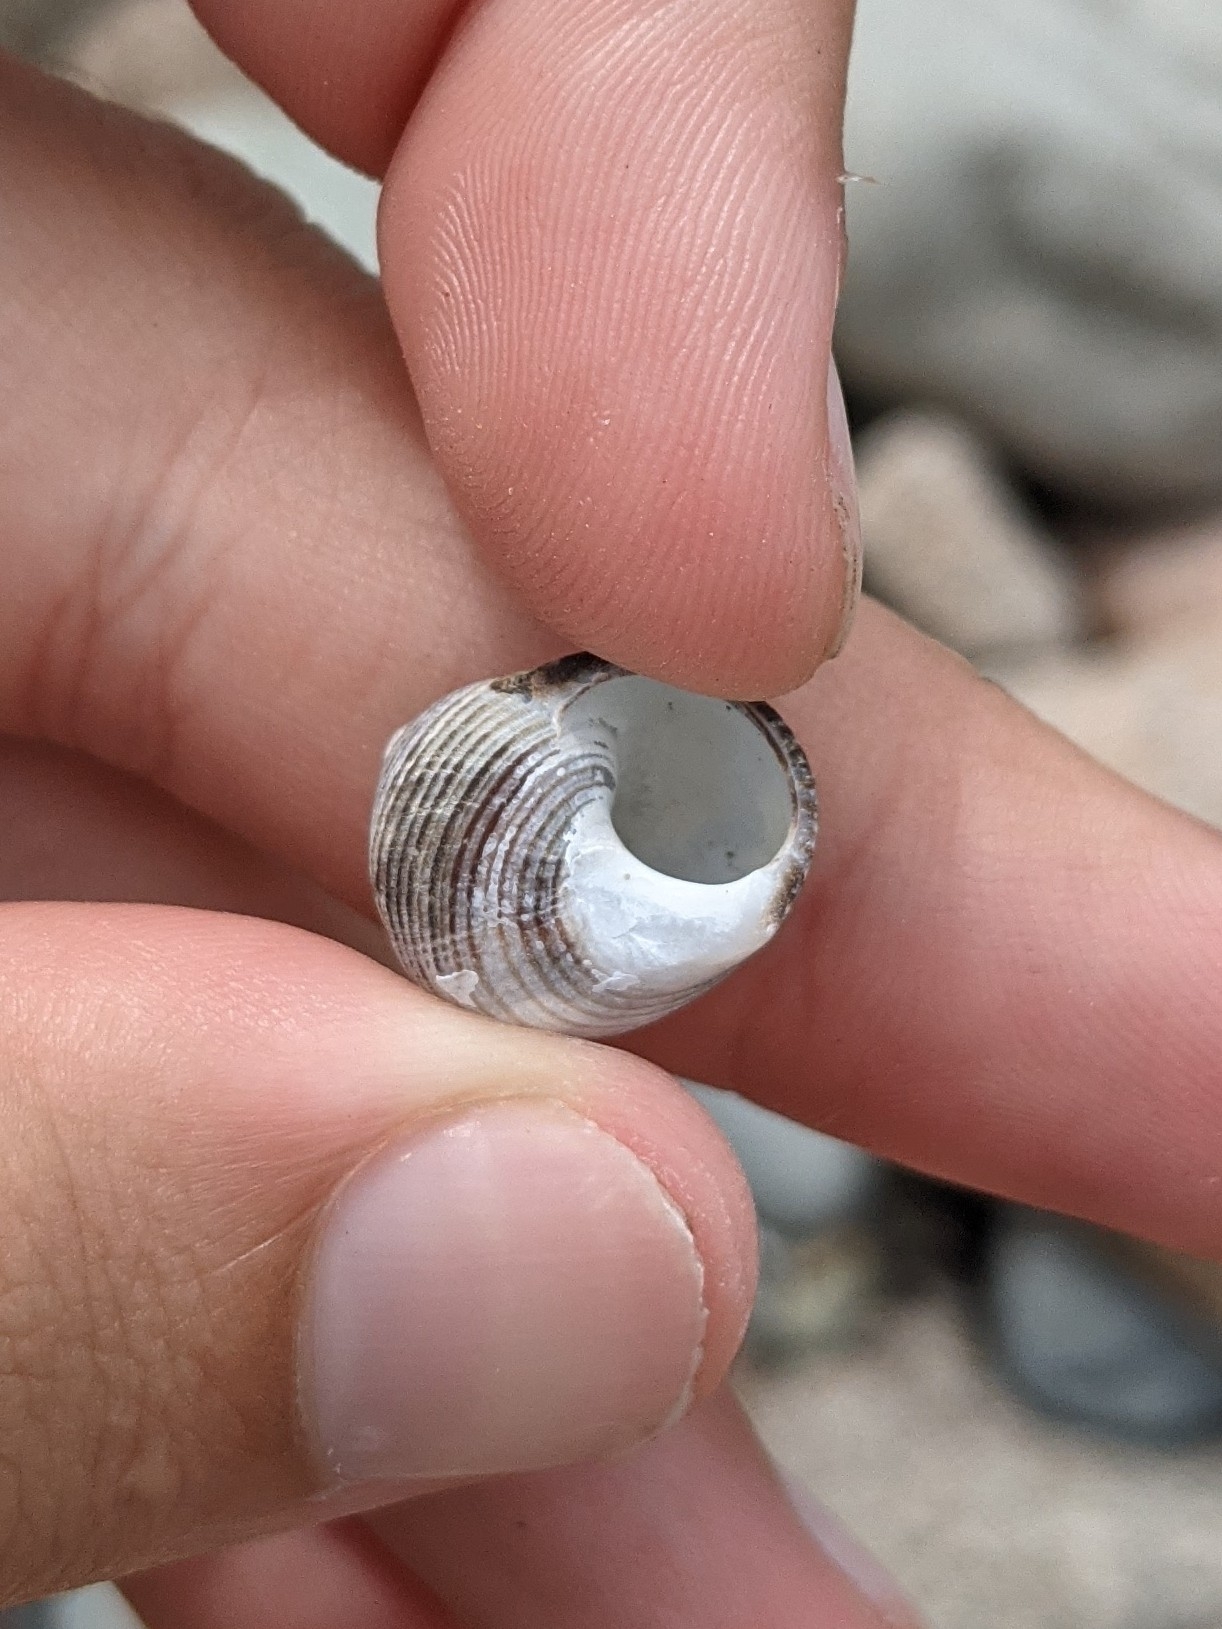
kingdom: Animalia
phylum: Mollusca
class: Gastropoda
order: Littorinimorpha
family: Littorinidae
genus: Littorina
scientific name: Littorina littorea
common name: Common periwinkle
